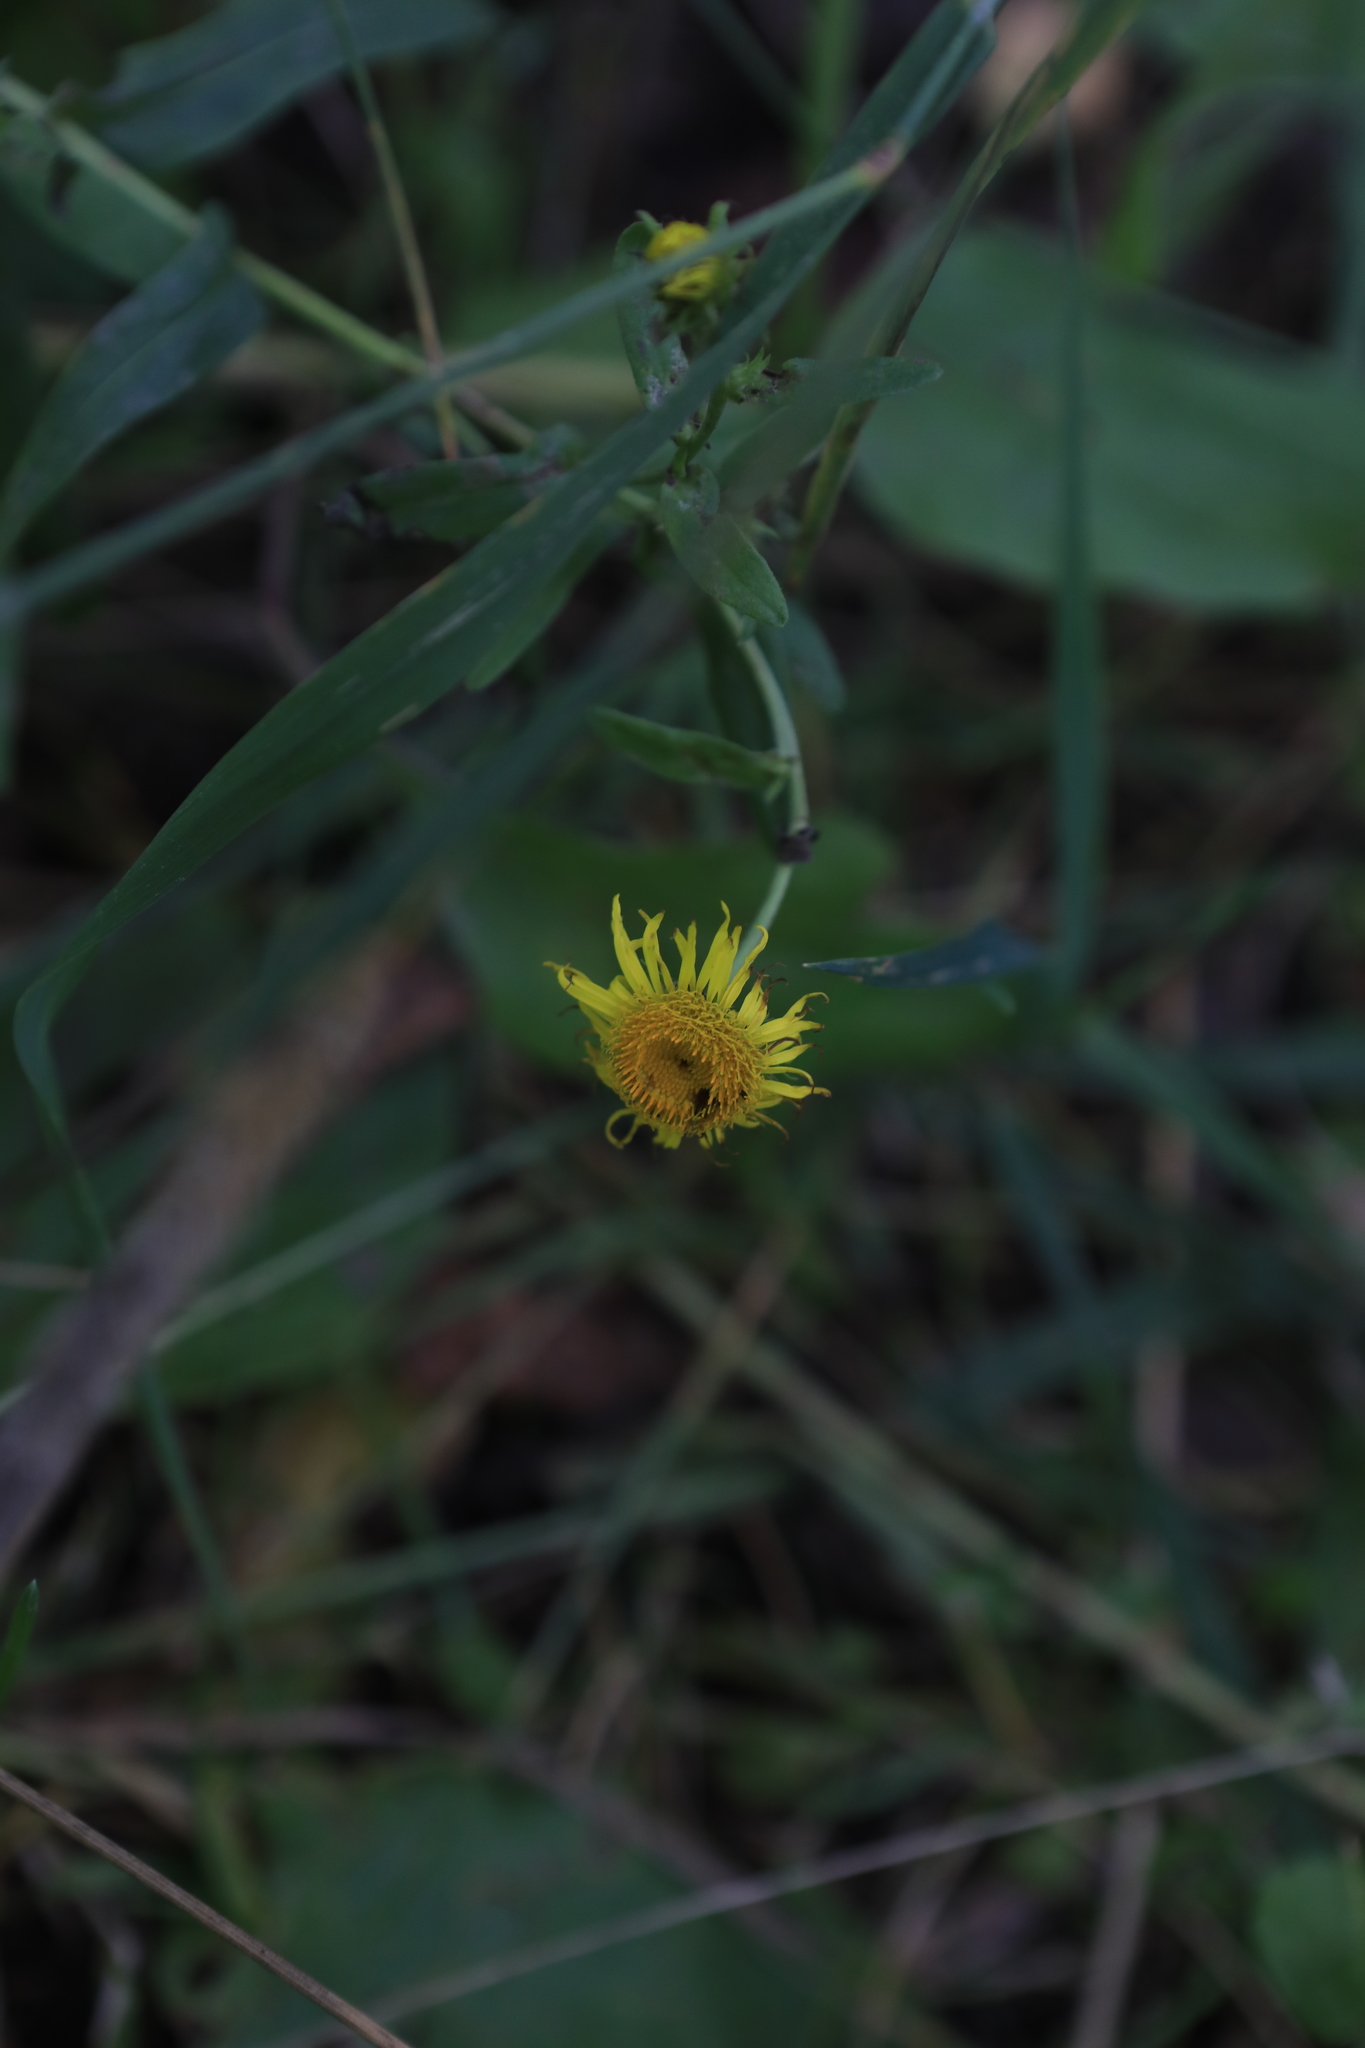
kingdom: Plantae
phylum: Tracheophyta
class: Magnoliopsida
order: Asterales
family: Asteraceae
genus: Pentanema
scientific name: Pentanema britannicum
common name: British elecampane
